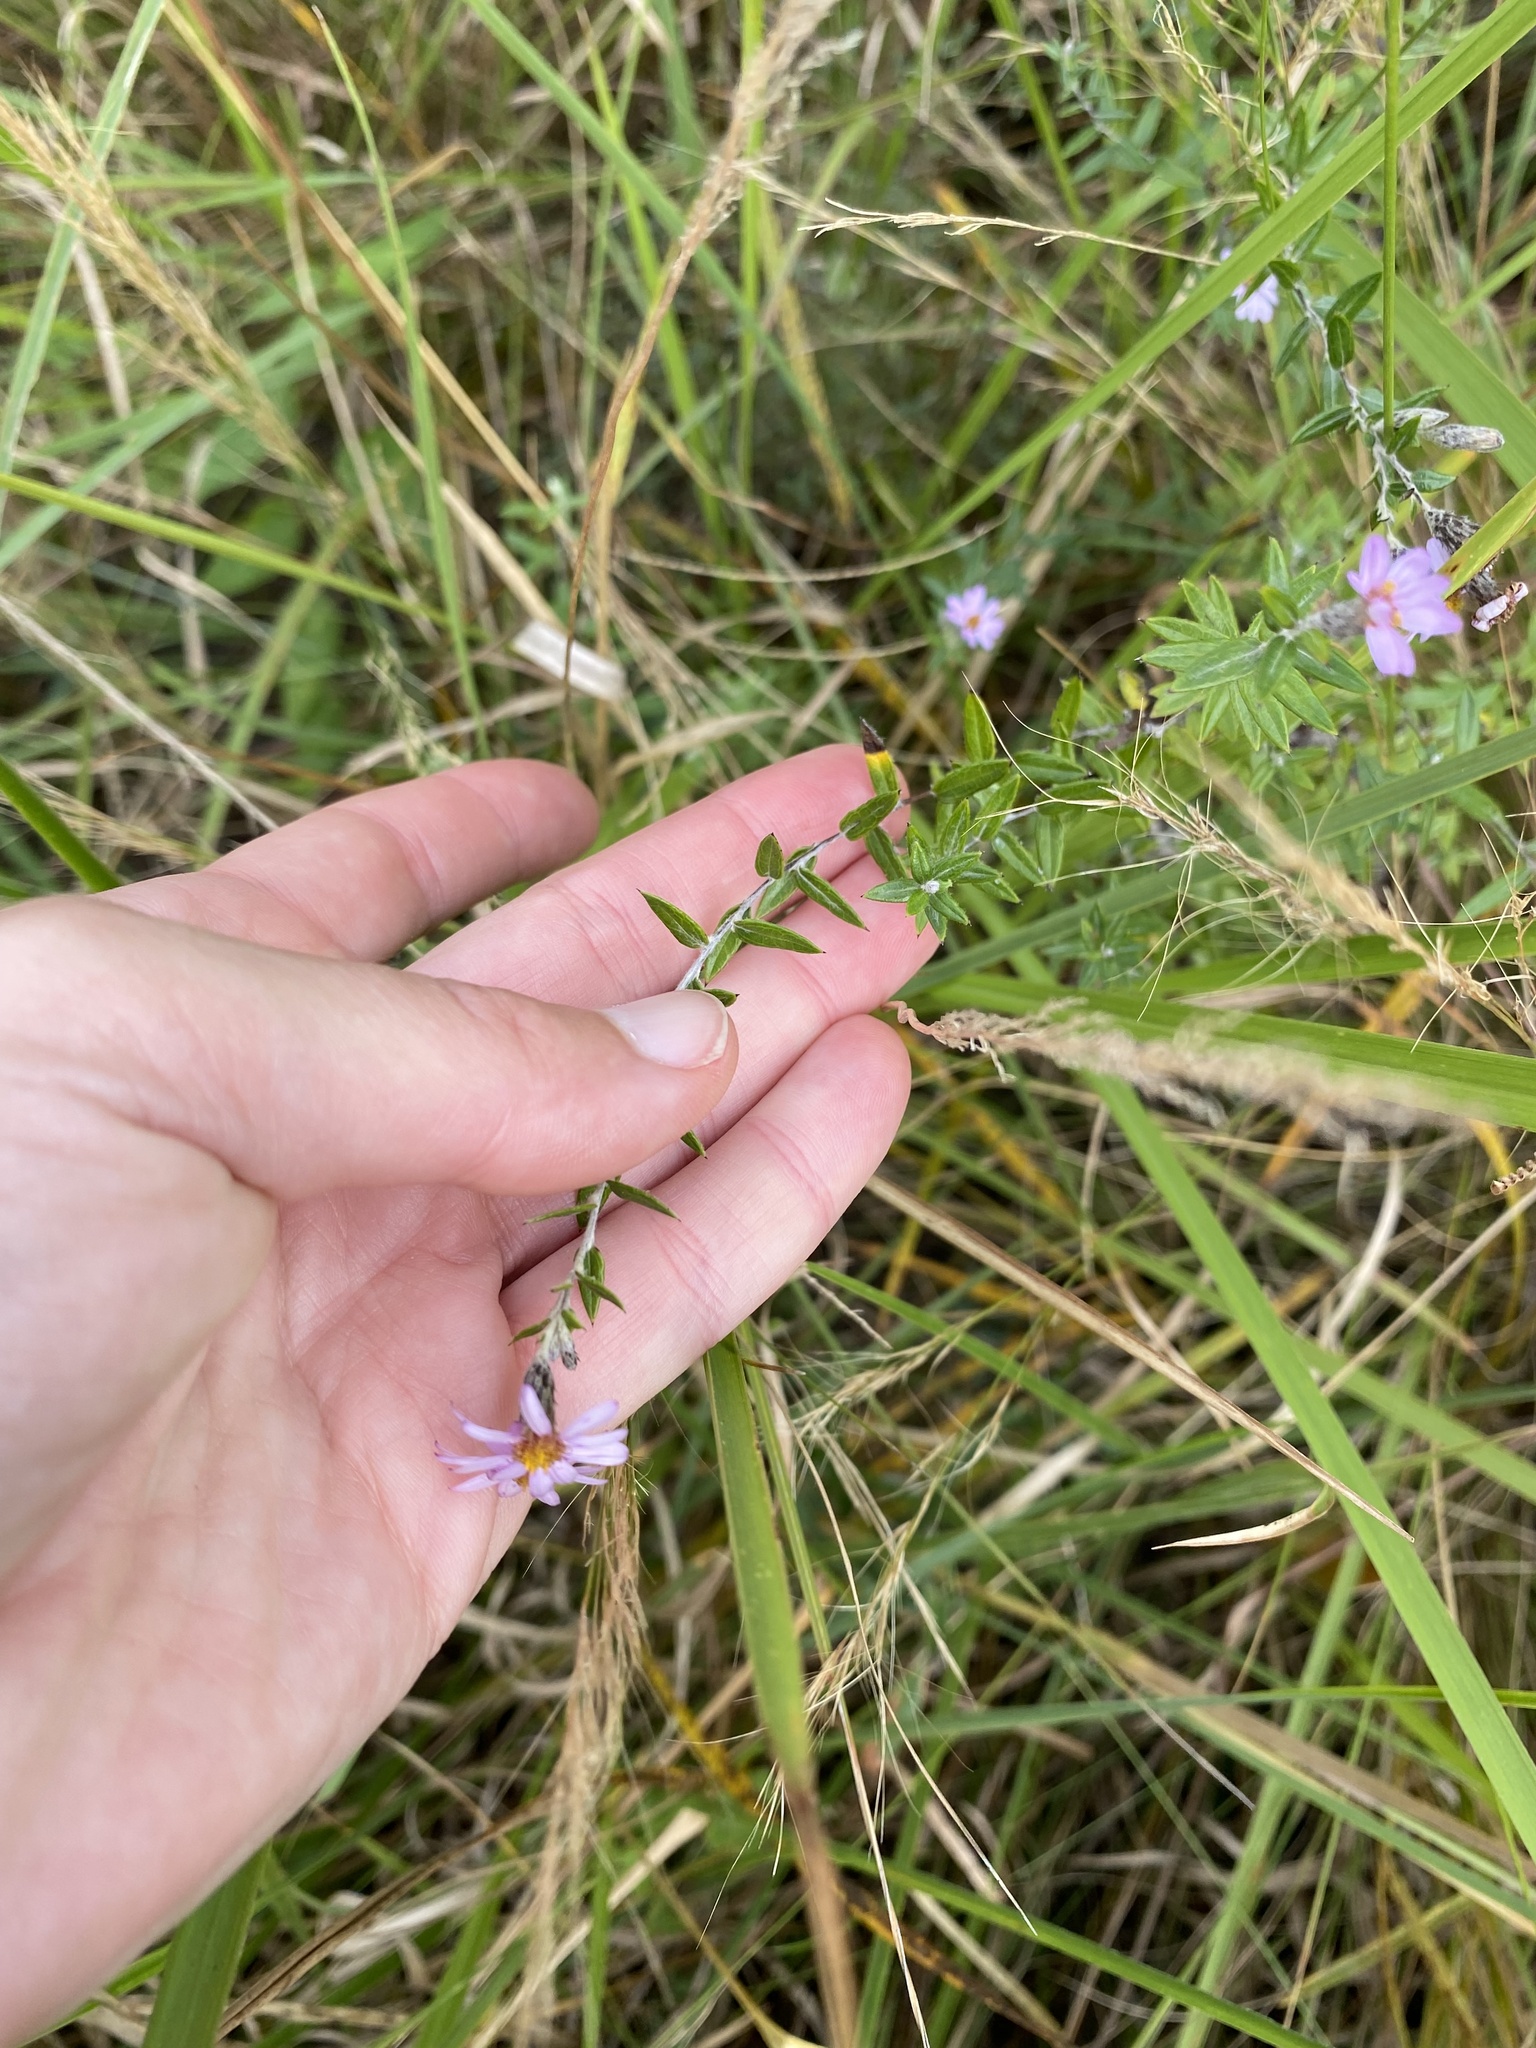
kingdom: Plantae
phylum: Tracheophyta
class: Magnoliopsida
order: Asterales
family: Asteraceae
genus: Athrixia
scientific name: Athrixia phylicoides
